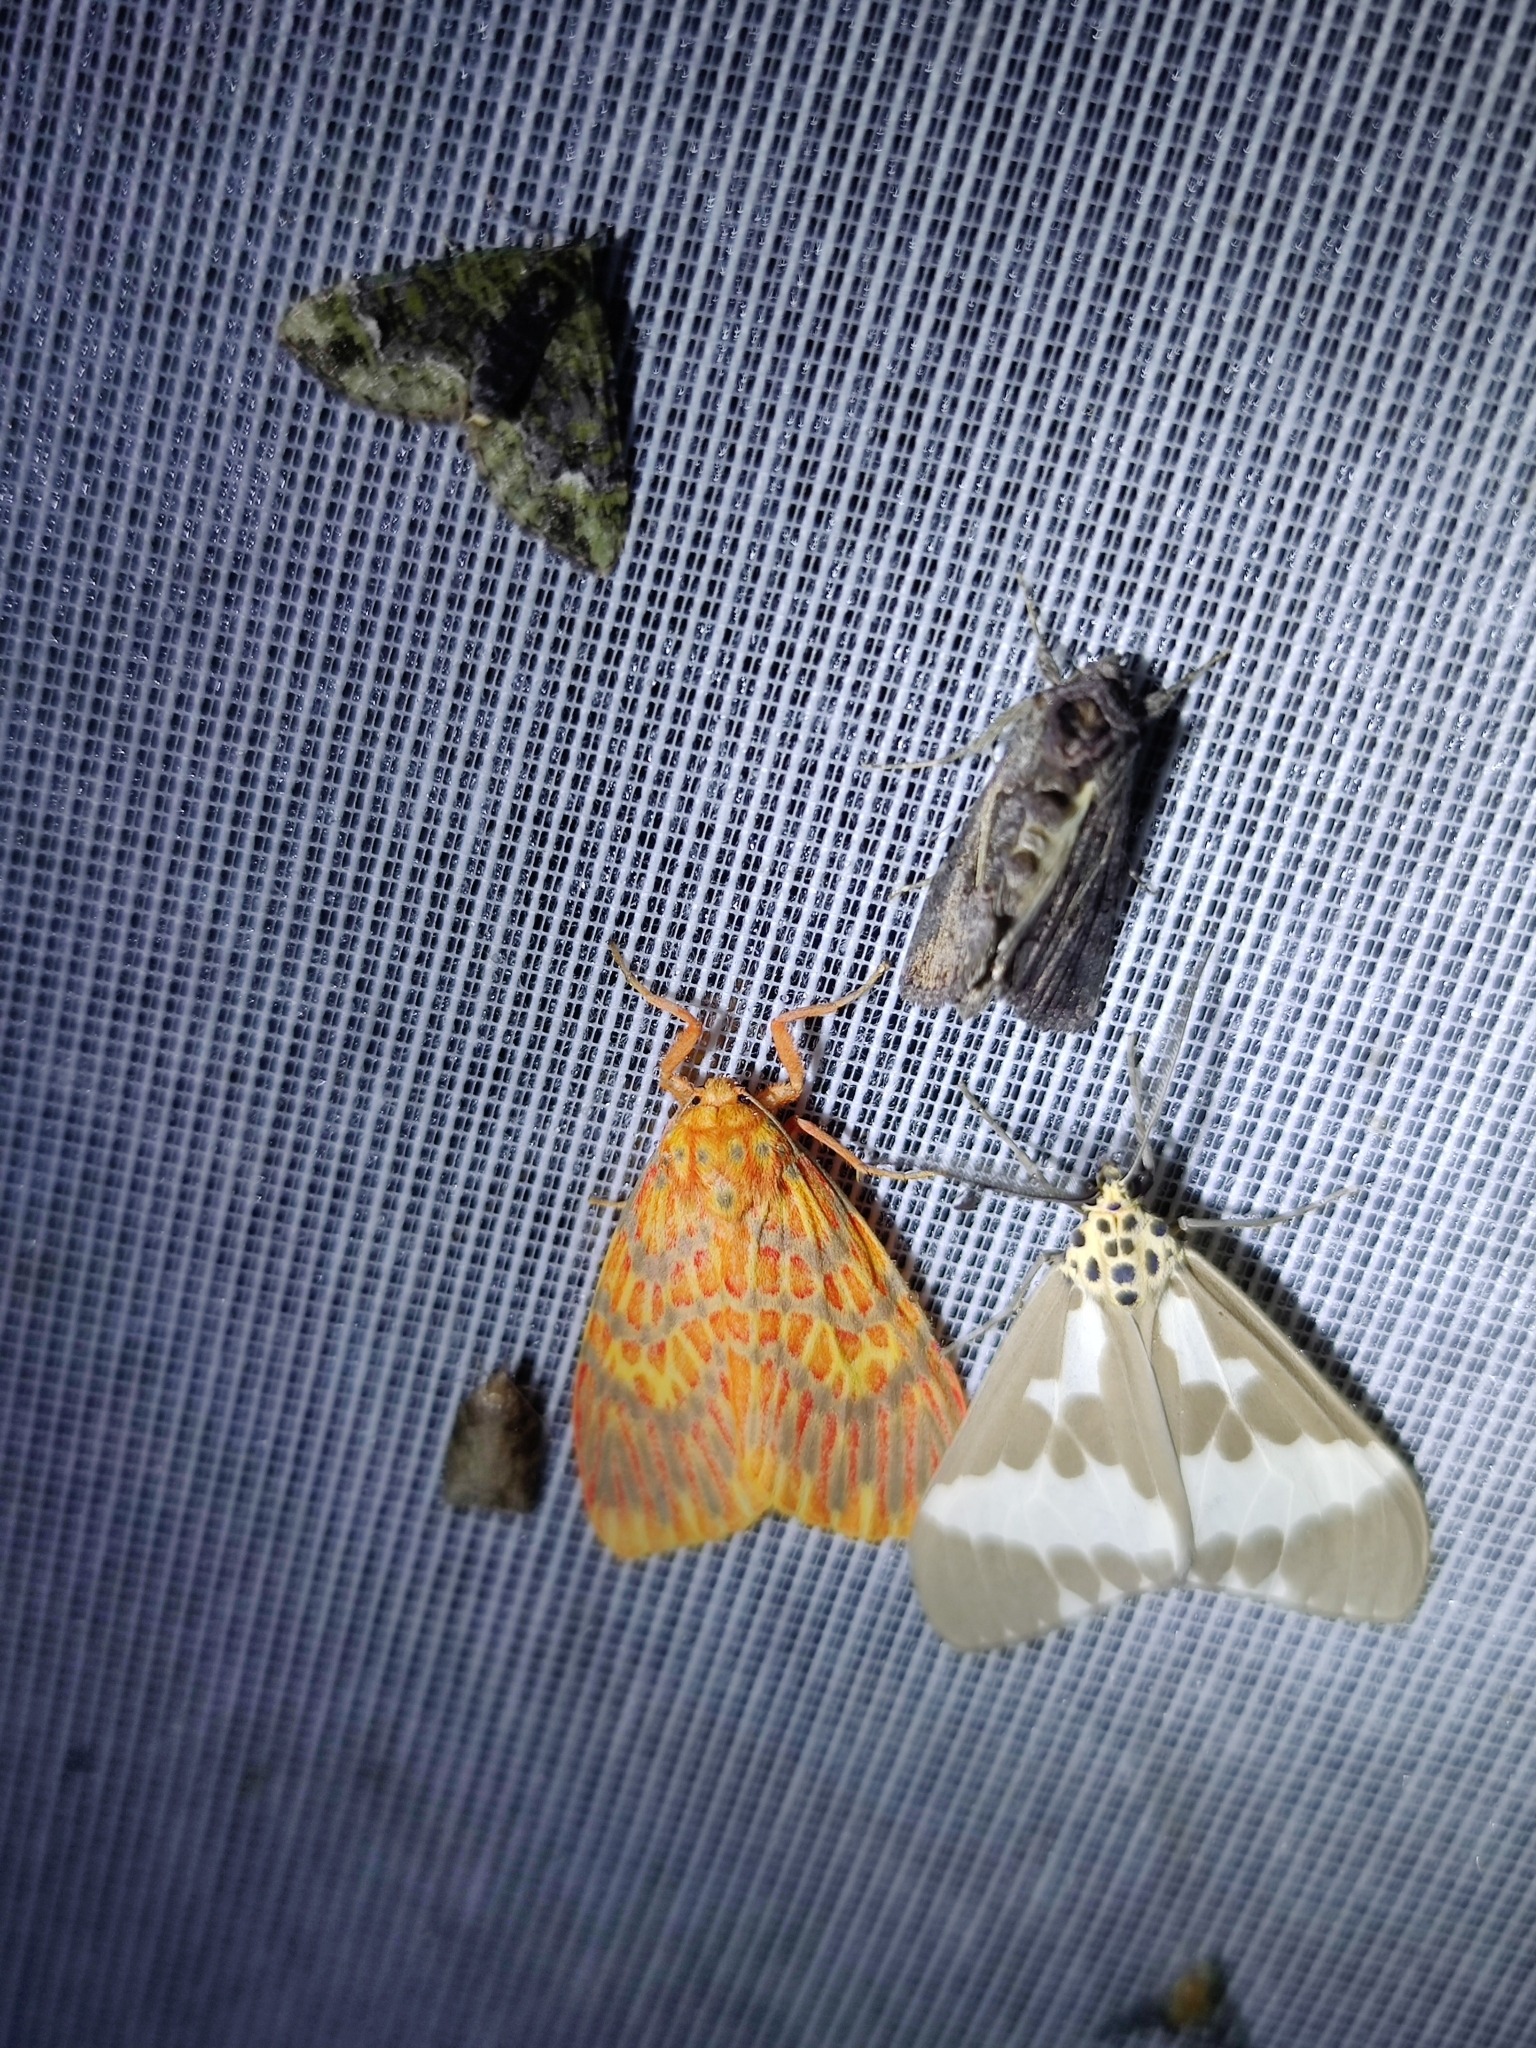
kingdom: Animalia
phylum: Arthropoda
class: Insecta
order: Lepidoptera
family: Erebidae
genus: Nyctemera
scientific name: Nyctemera arctata
